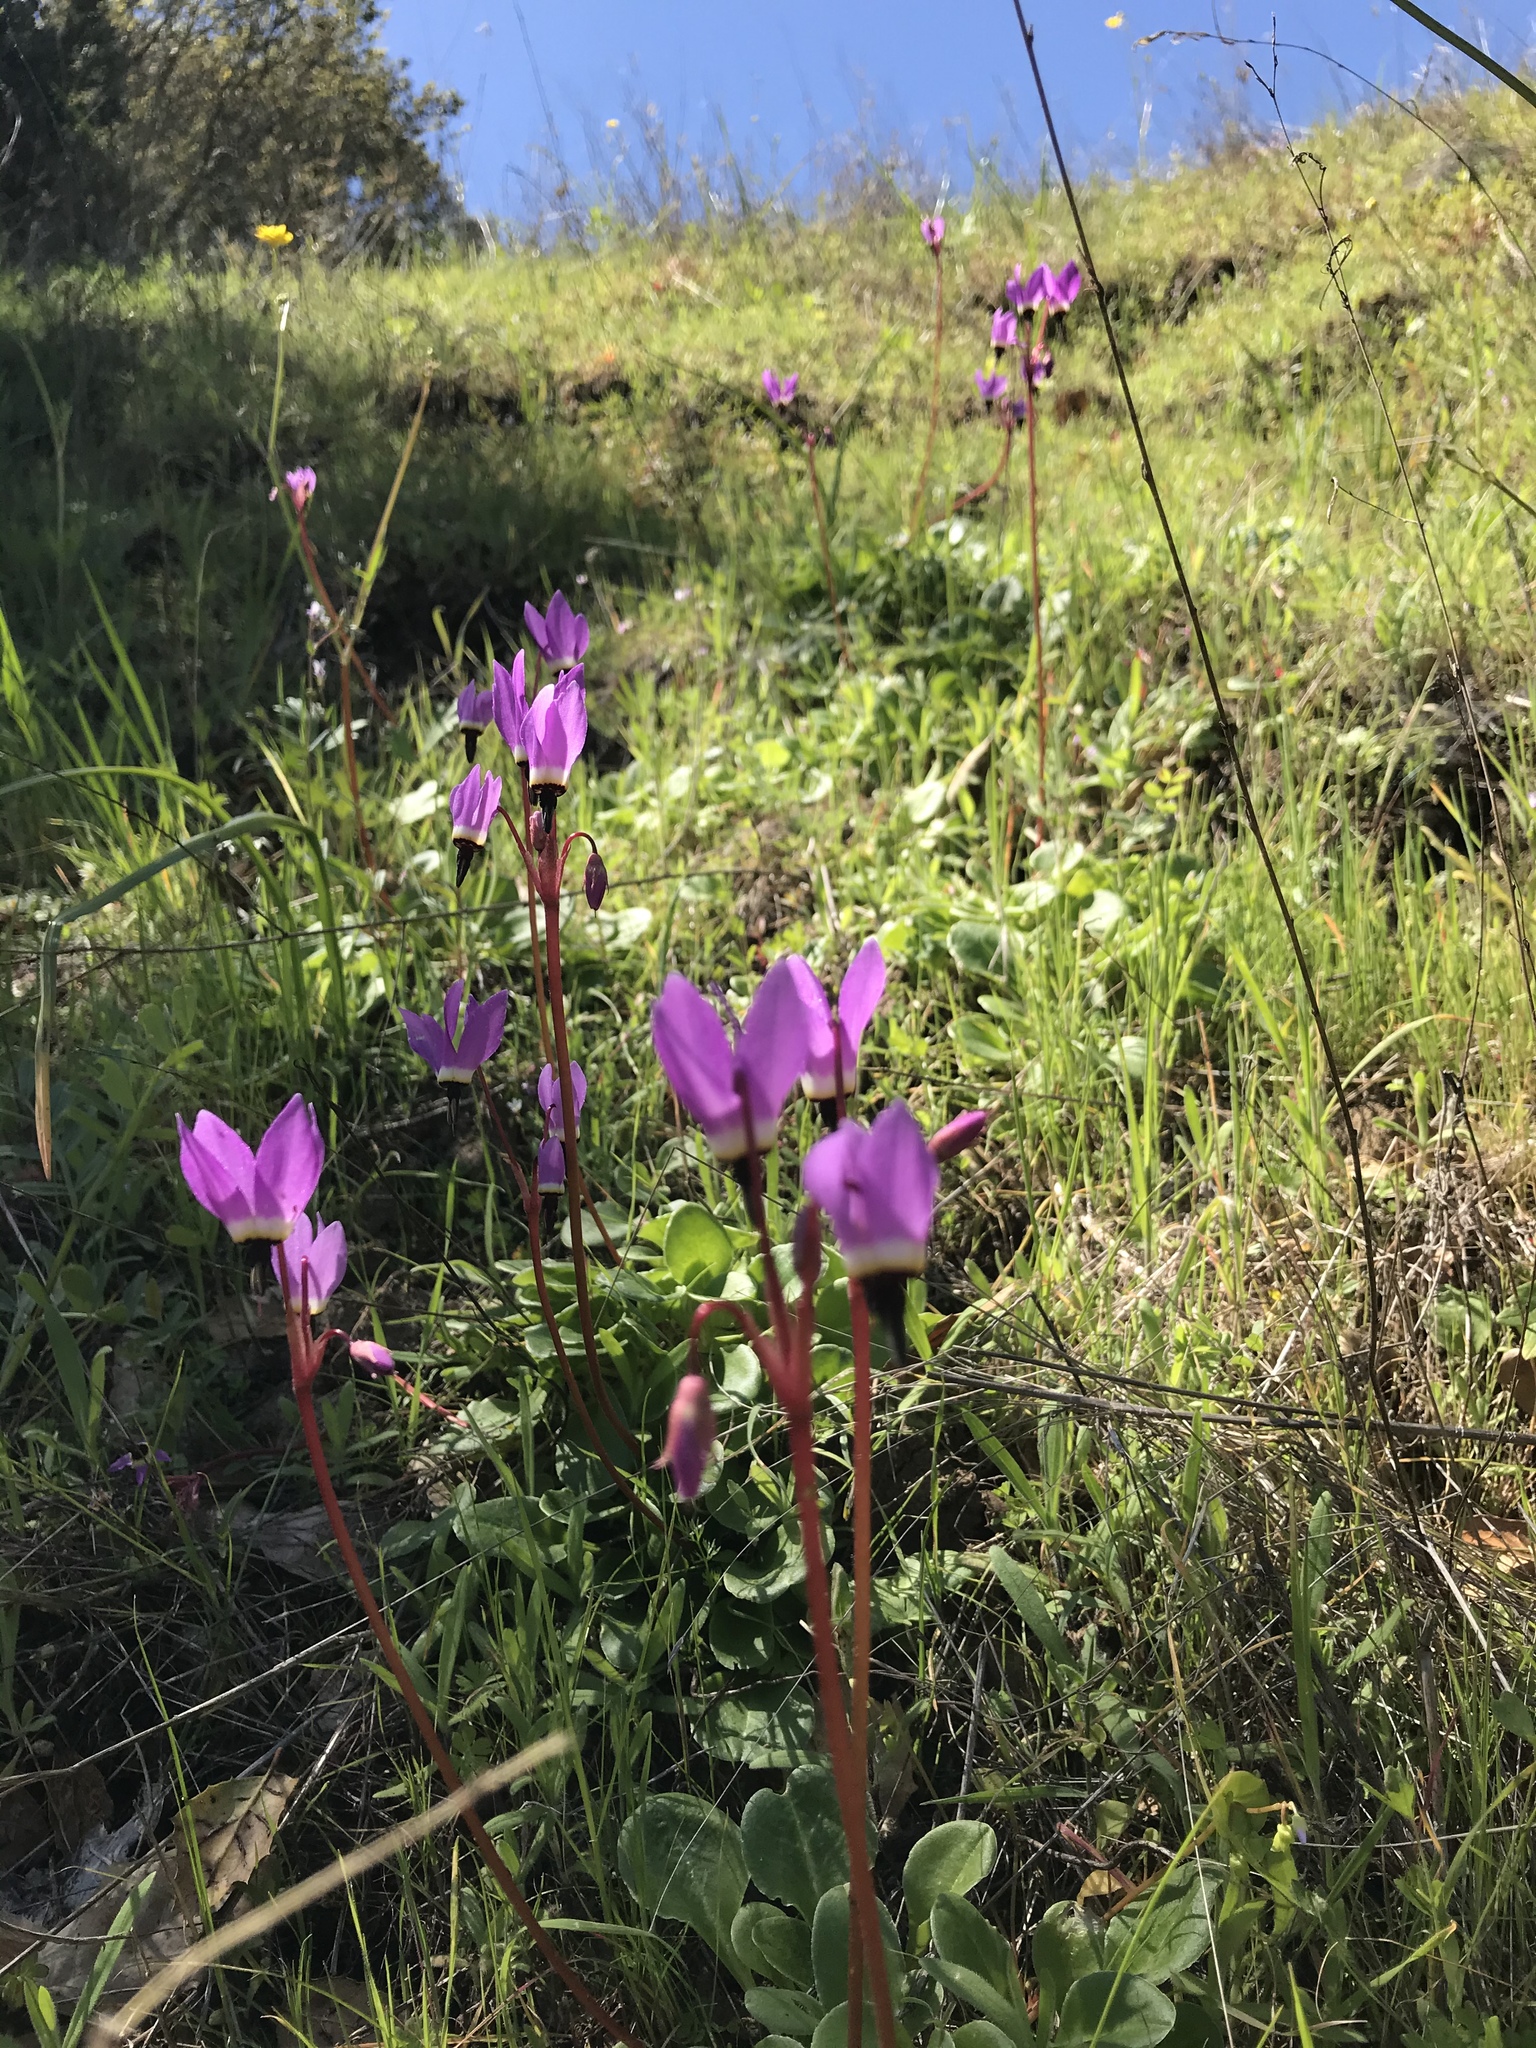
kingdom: Plantae
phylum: Tracheophyta
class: Magnoliopsida
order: Ericales
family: Primulaceae
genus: Dodecatheon
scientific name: Dodecatheon hendersonii
